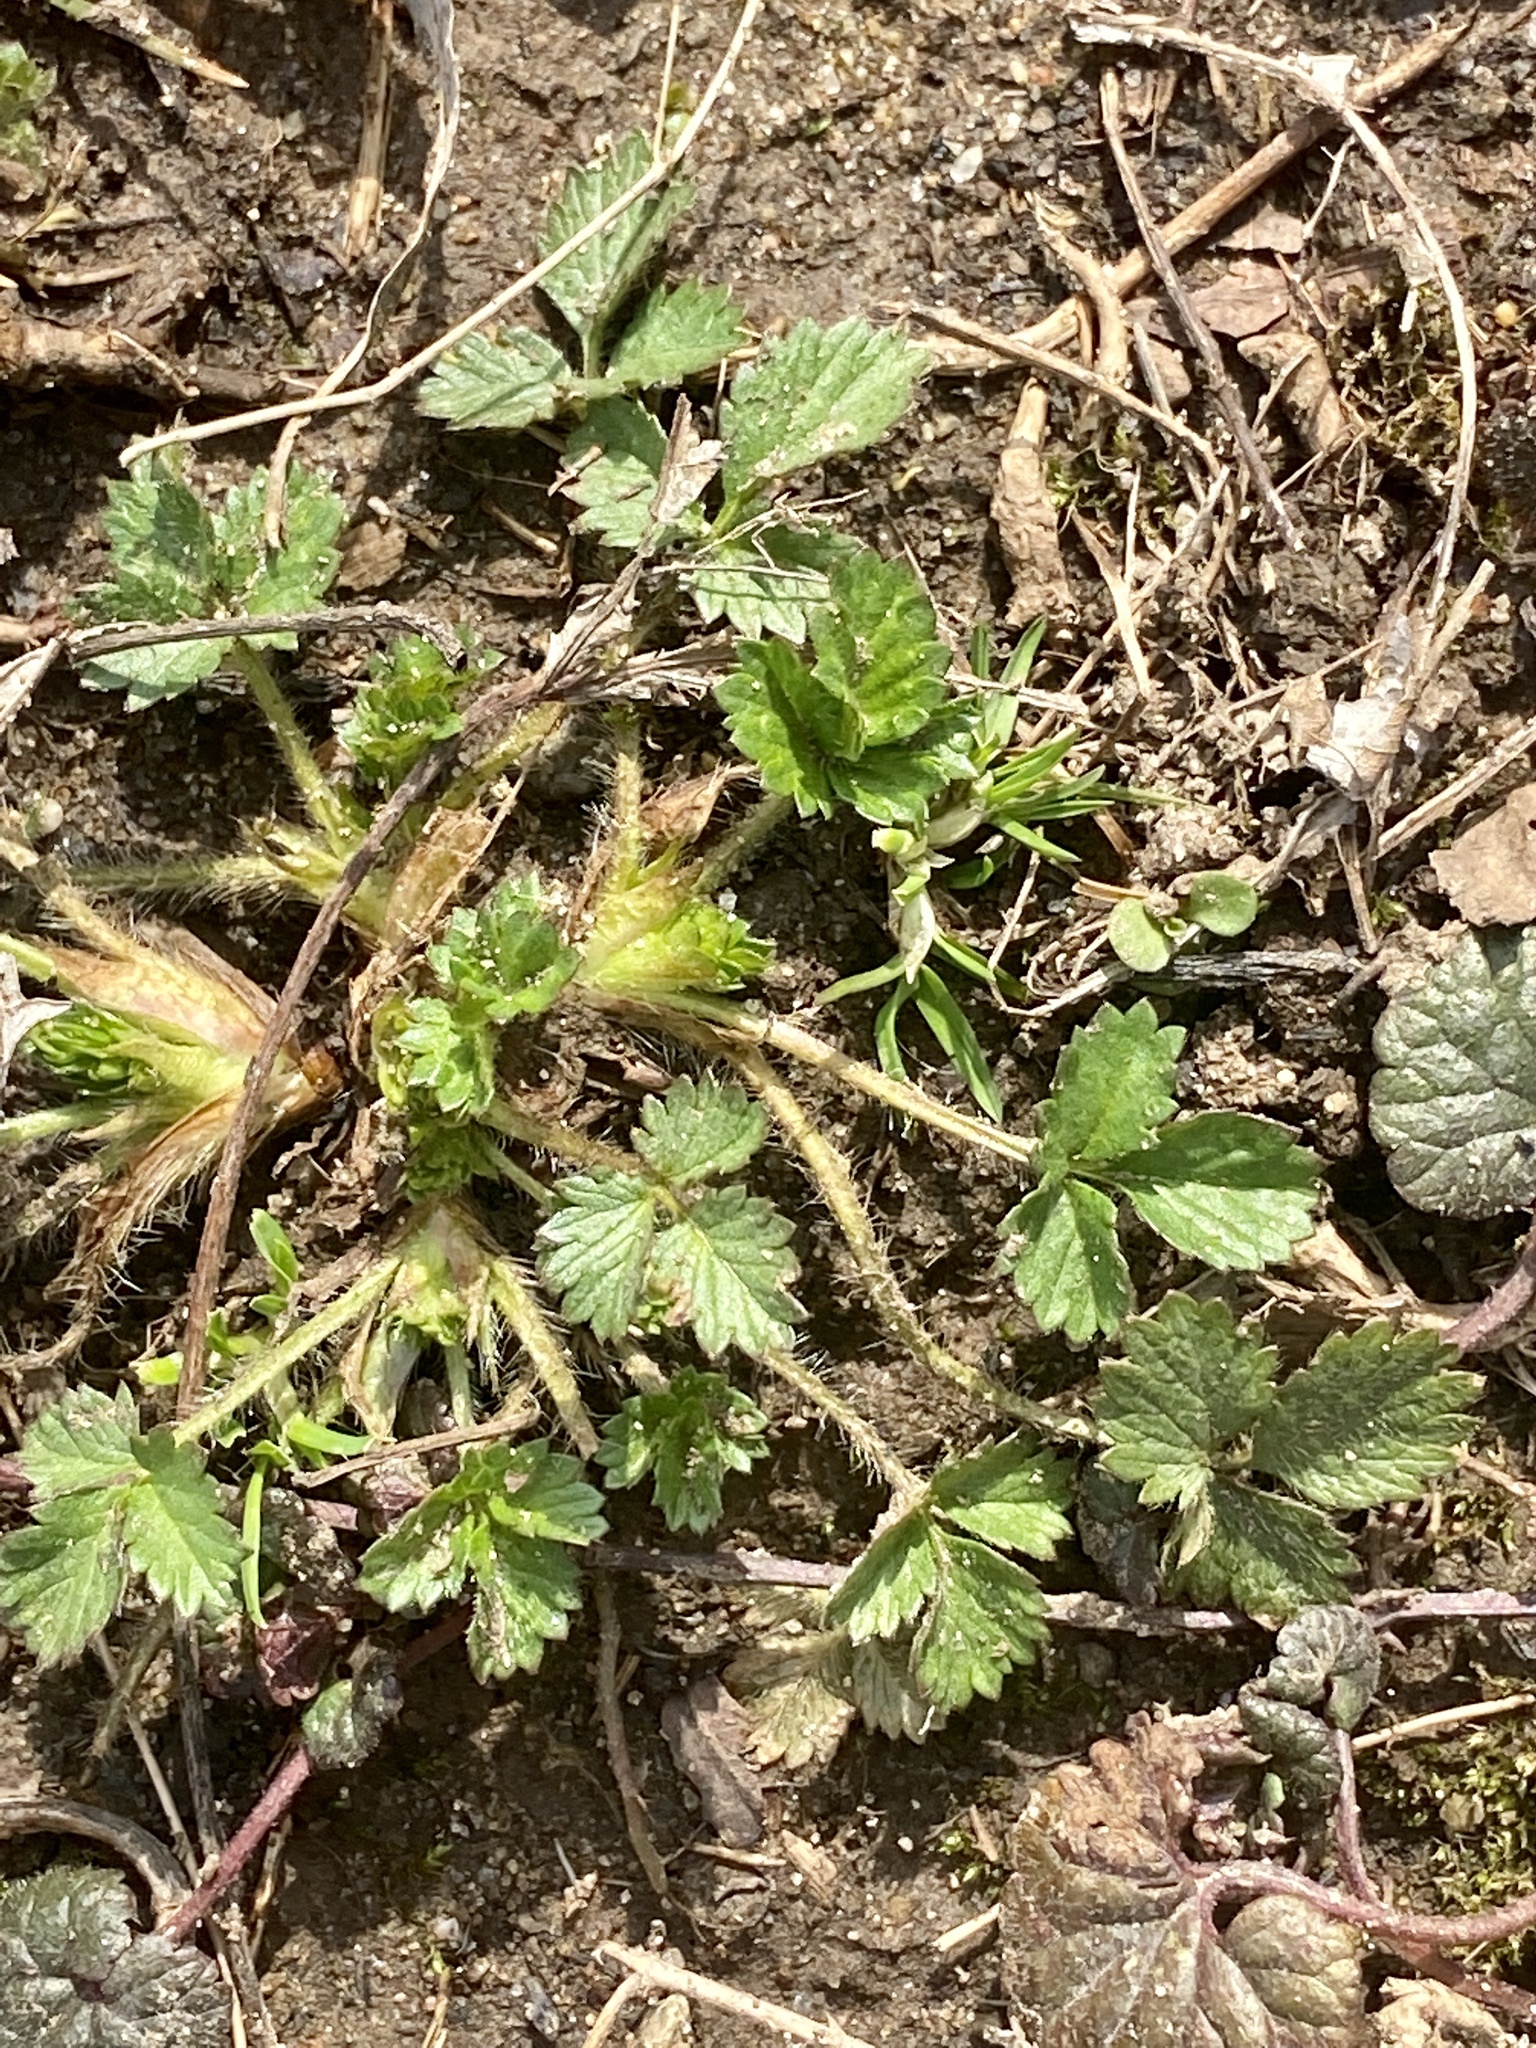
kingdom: Plantae
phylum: Tracheophyta
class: Magnoliopsida
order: Rosales
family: Rosaceae
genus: Potentilla
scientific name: Potentilla indica
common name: Yellow-flowered strawberry
